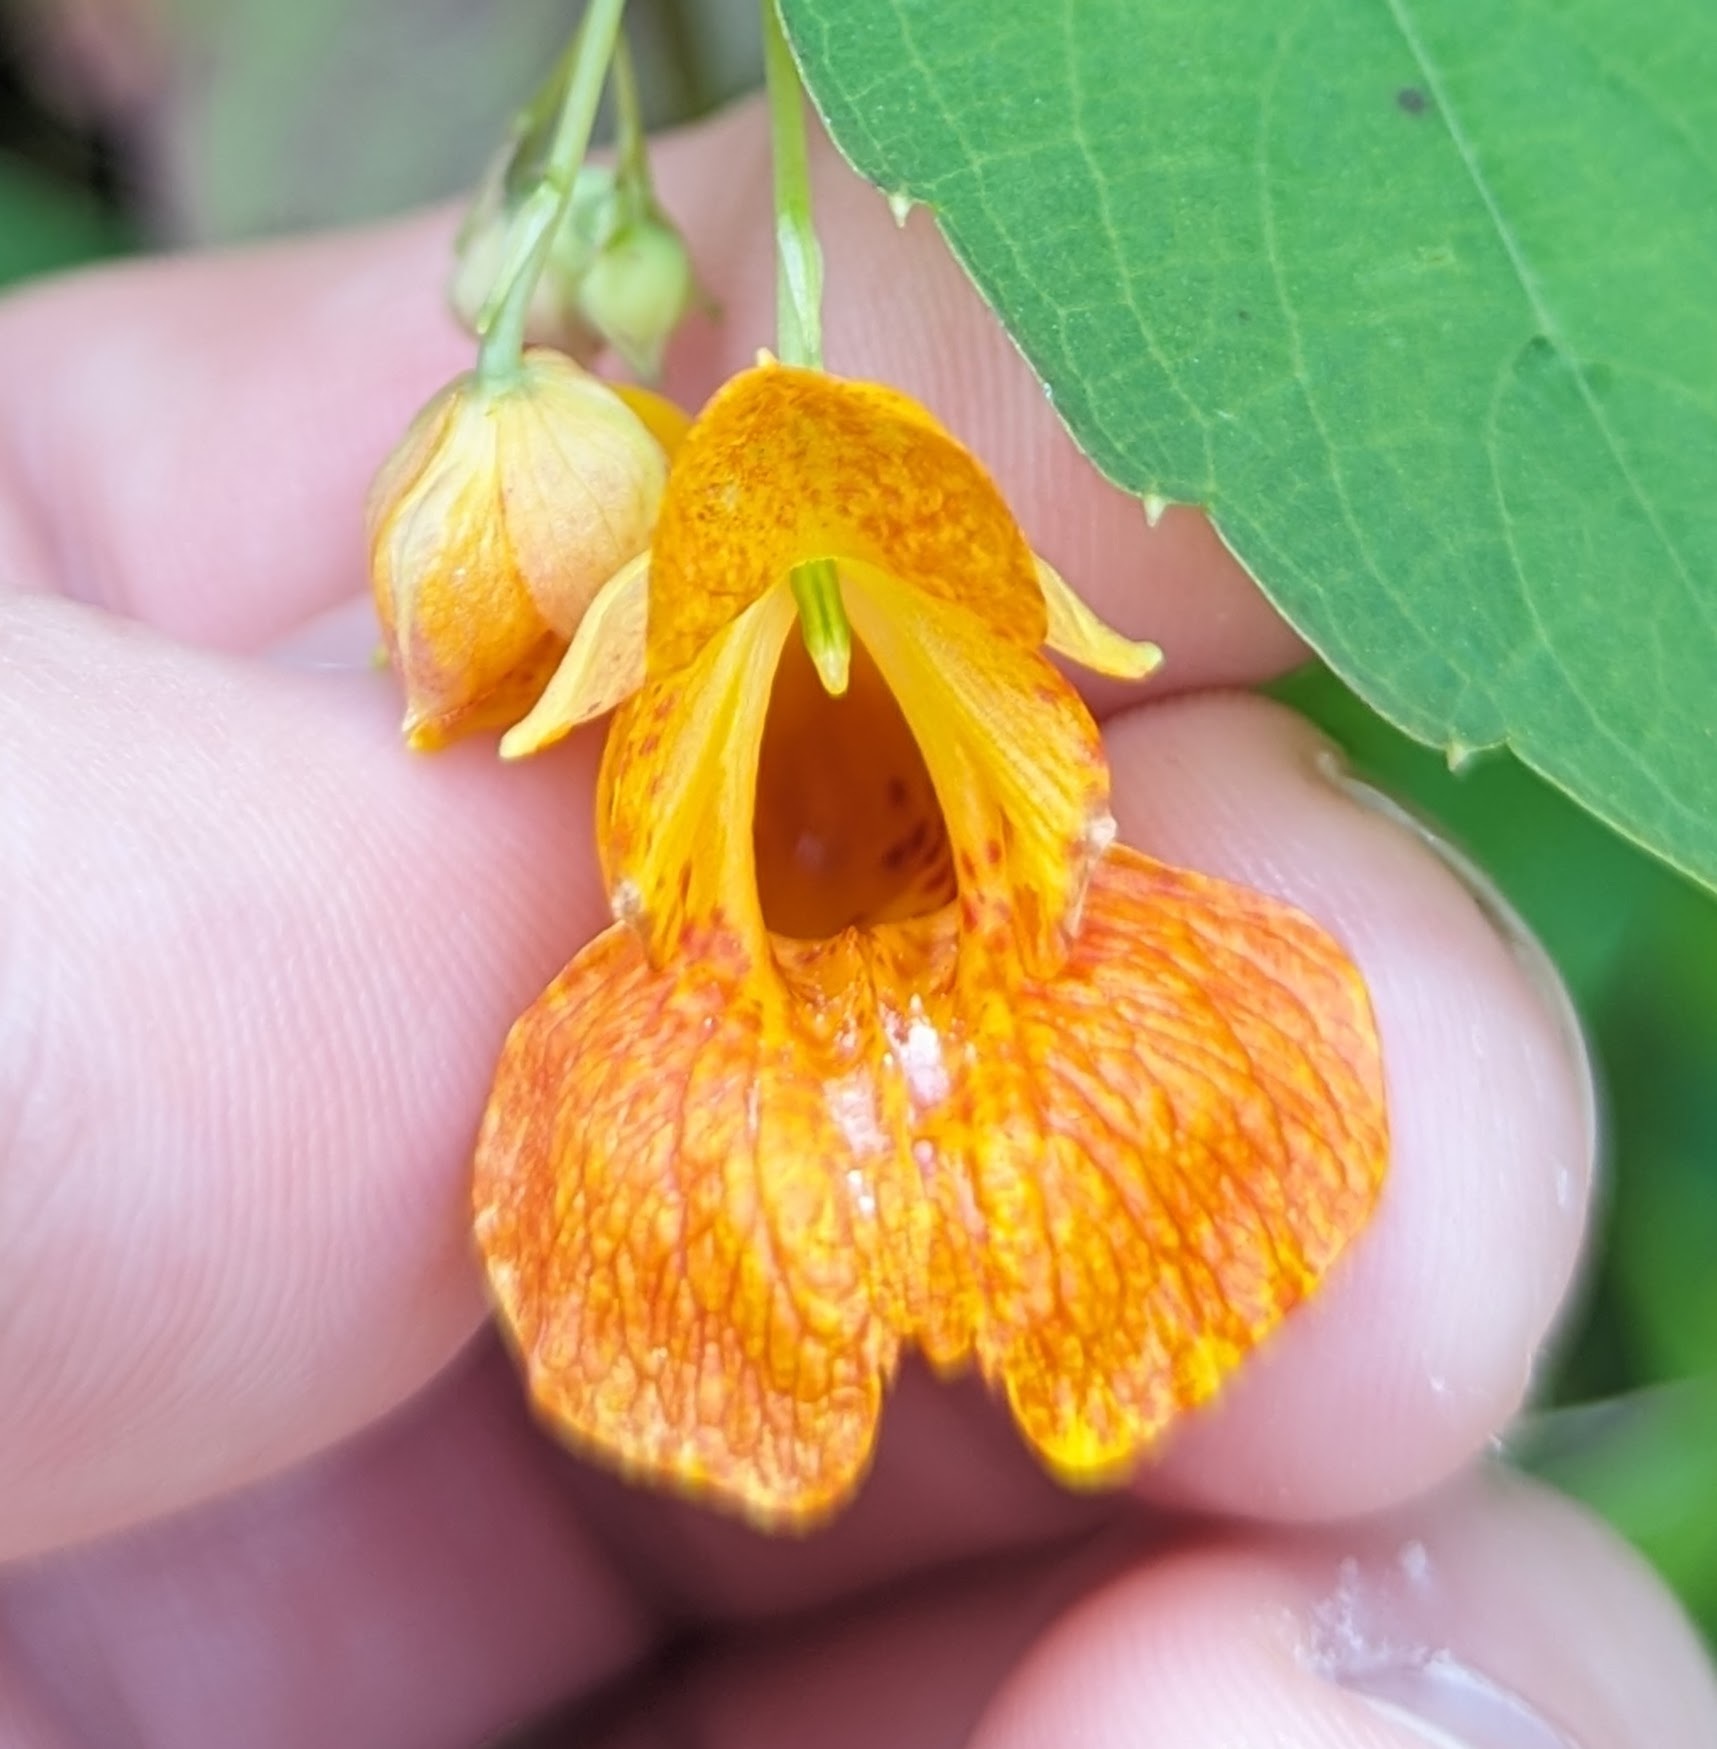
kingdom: Plantae
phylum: Tracheophyta
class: Magnoliopsida
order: Ericales
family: Balsaminaceae
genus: Impatiens
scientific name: Impatiens capensis
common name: Orange balsam
